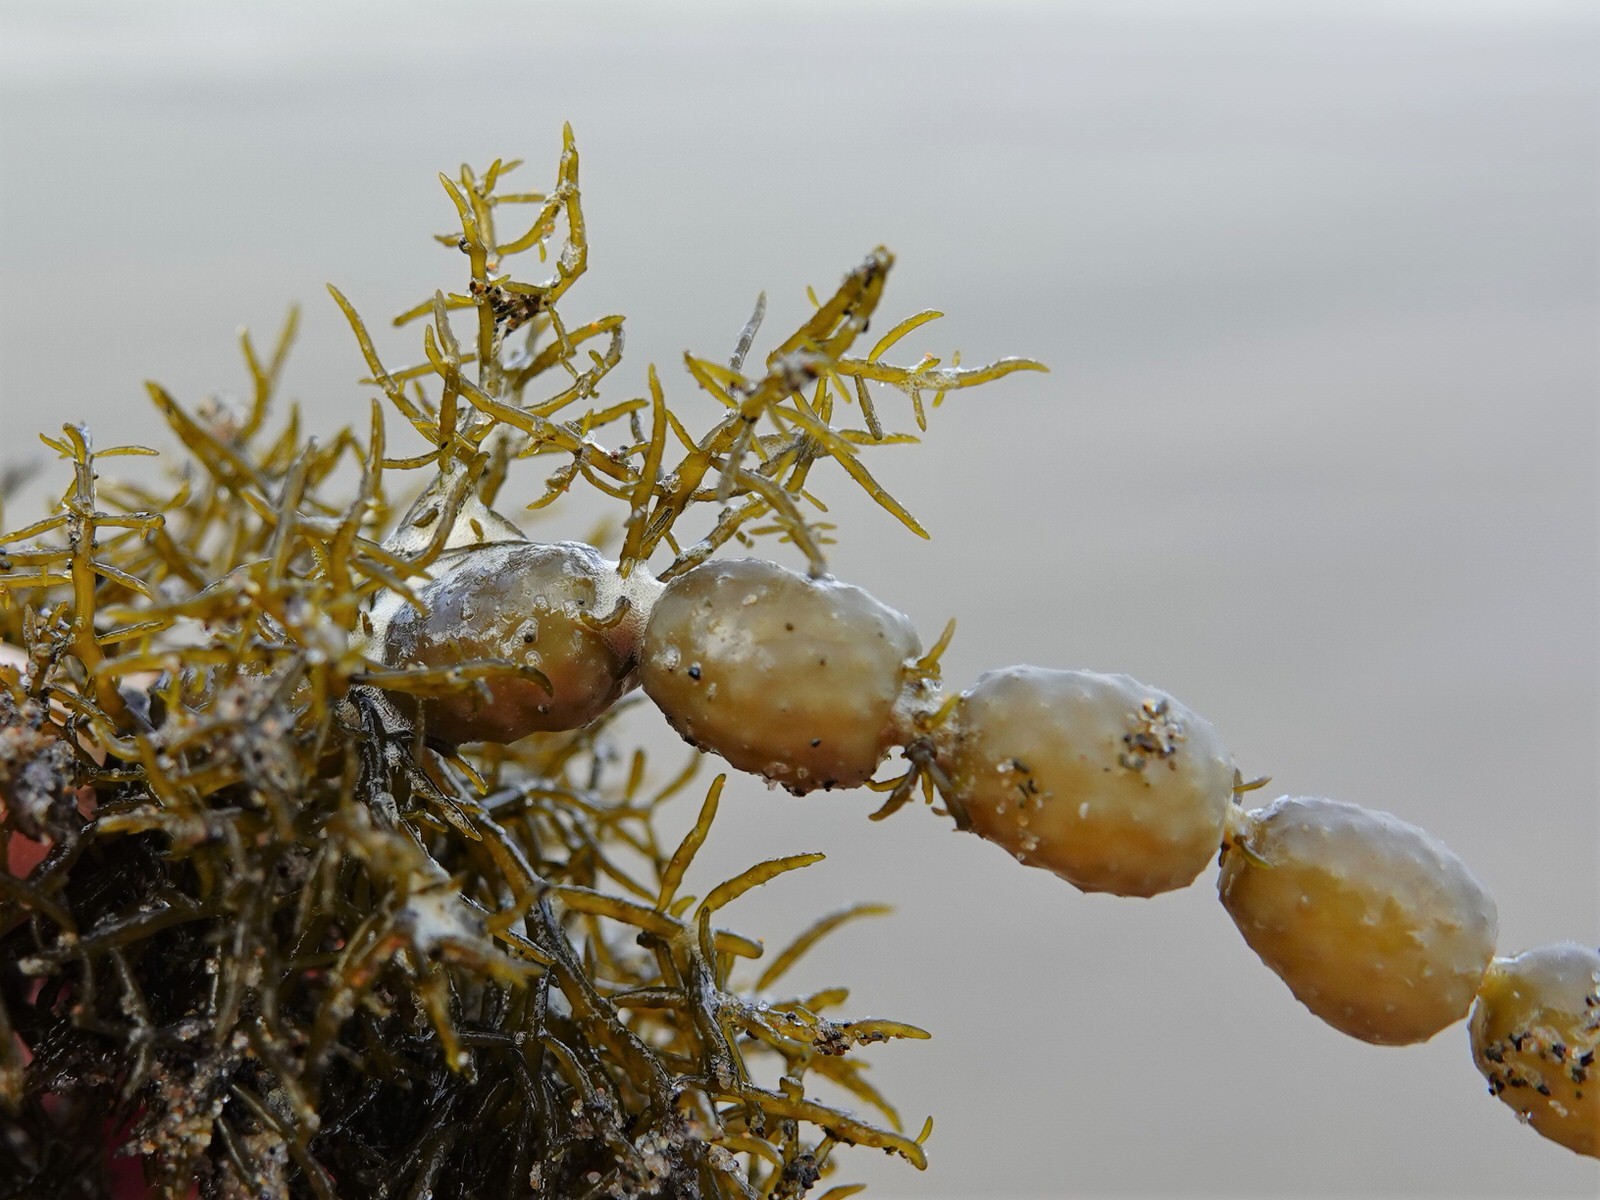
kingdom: Chromista
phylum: Ochrophyta
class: Phaeophyceae
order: Fucales
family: Notheiaceae
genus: Notheia
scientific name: Notheia anomala
